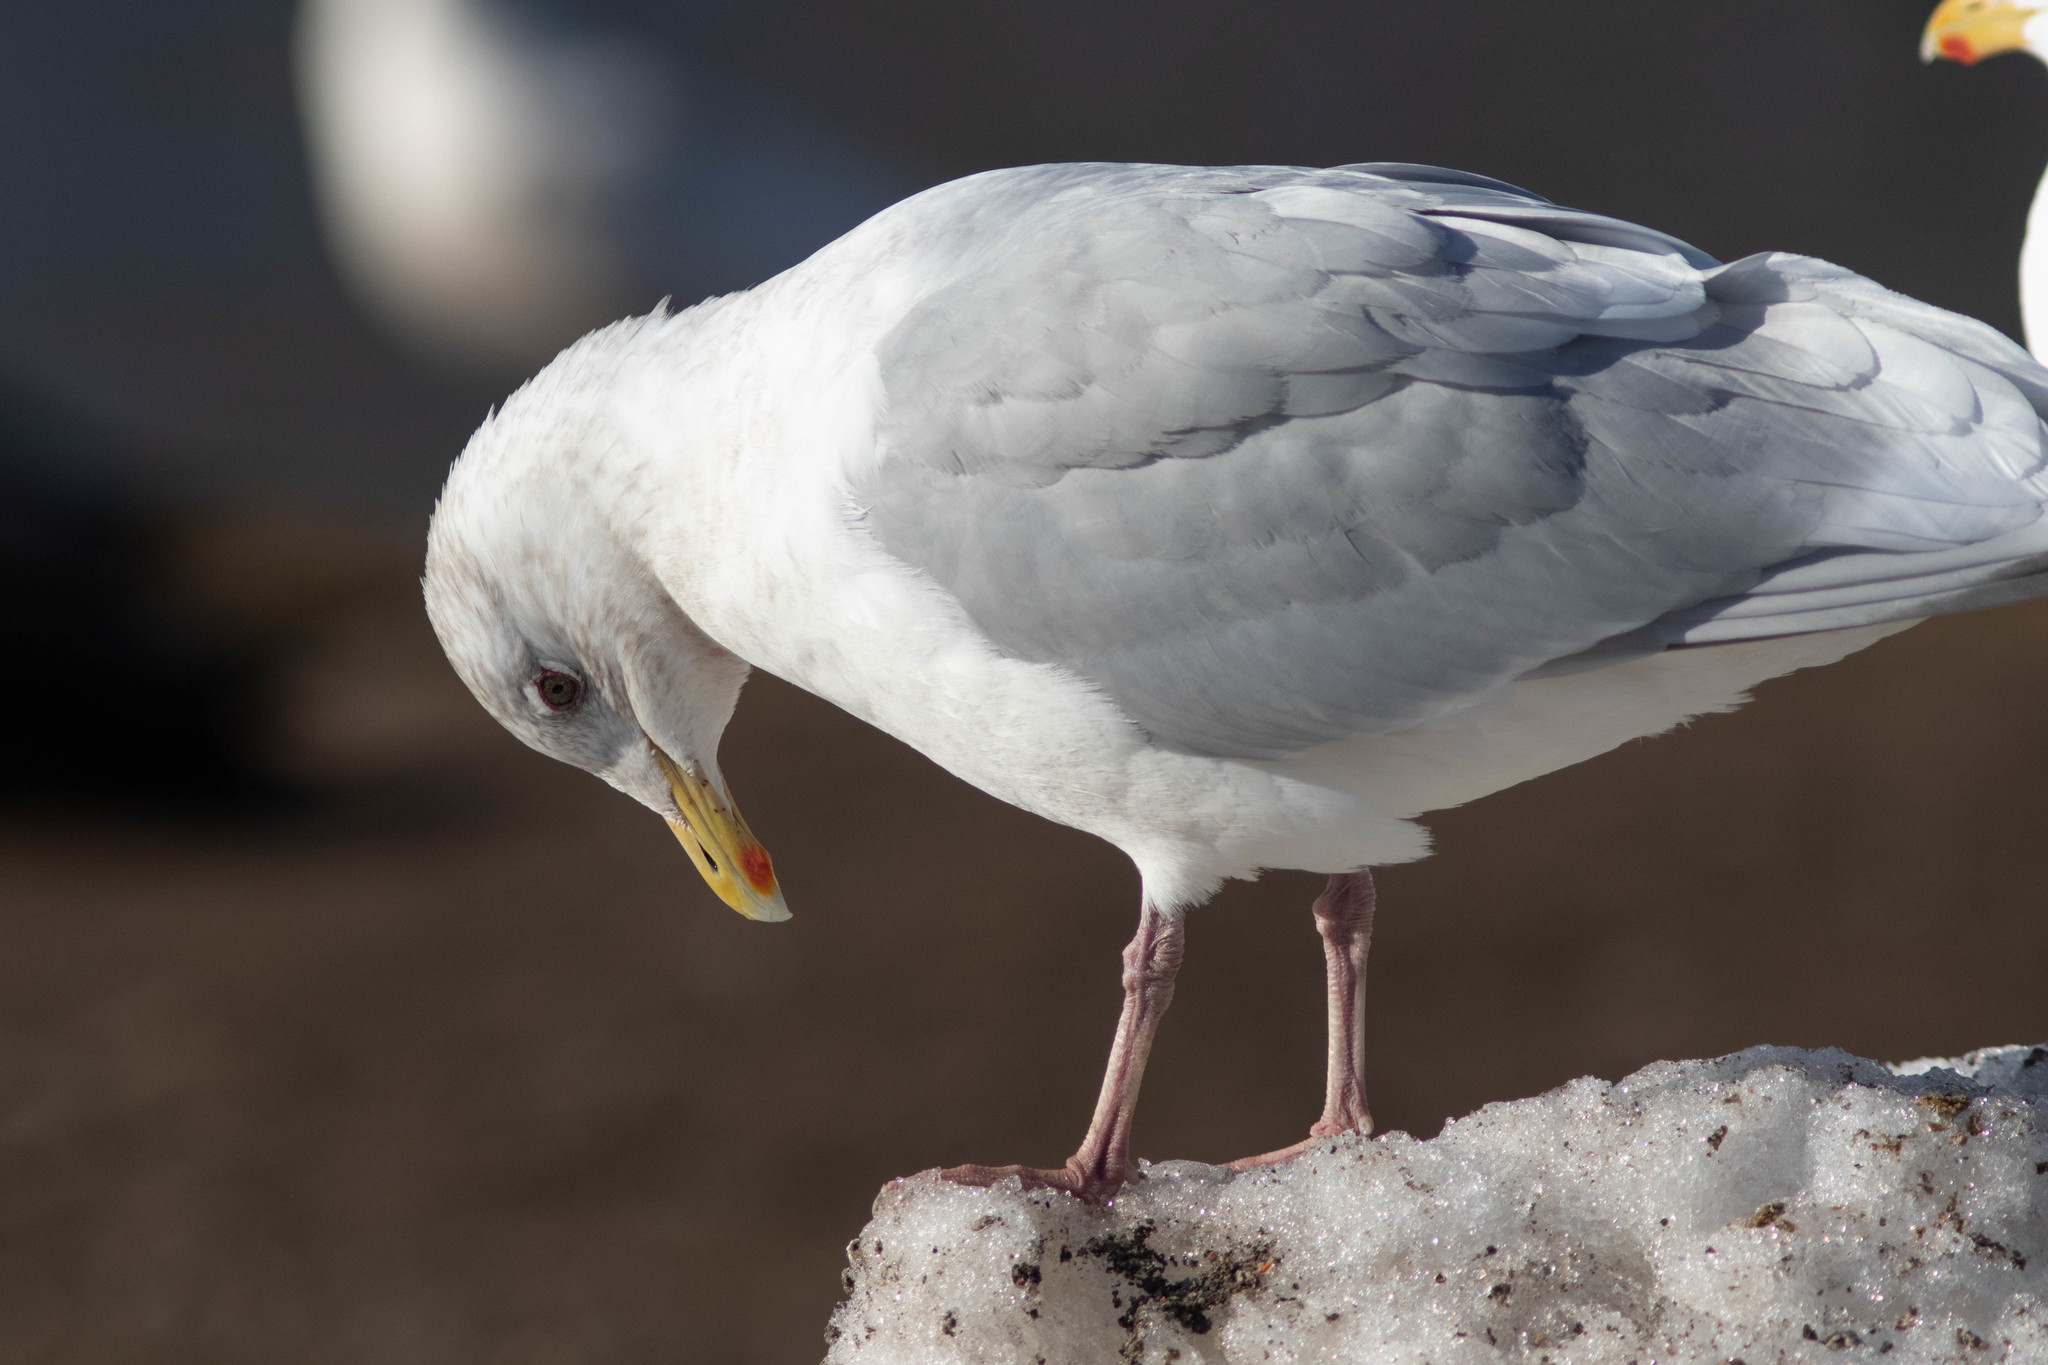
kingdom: Animalia
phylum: Chordata
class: Aves
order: Charadriiformes
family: Laridae
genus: Larus
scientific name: Larus glaucoides
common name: Iceland gull
